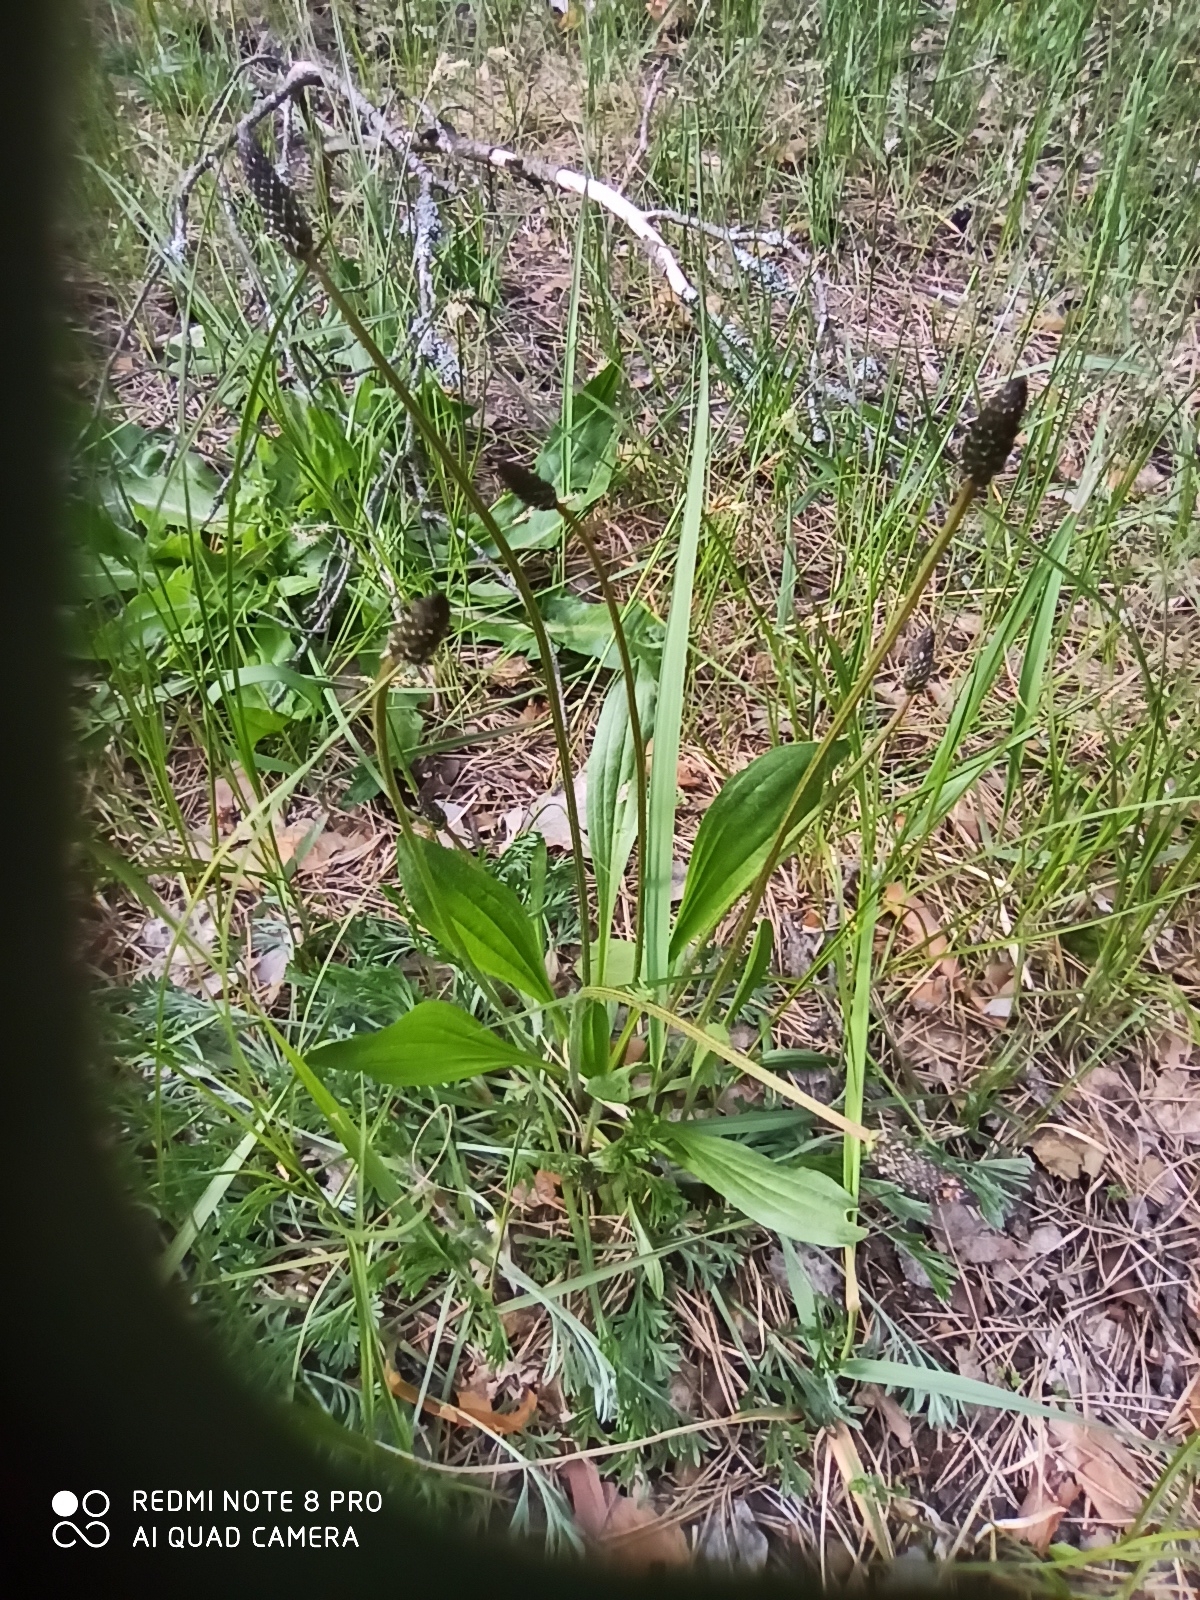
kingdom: Plantae
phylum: Tracheophyta
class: Magnoliopsida
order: Lamiales
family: Plantaginaceae
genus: Plantago
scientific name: Plantago lanceolata
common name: Ribwort plantain
